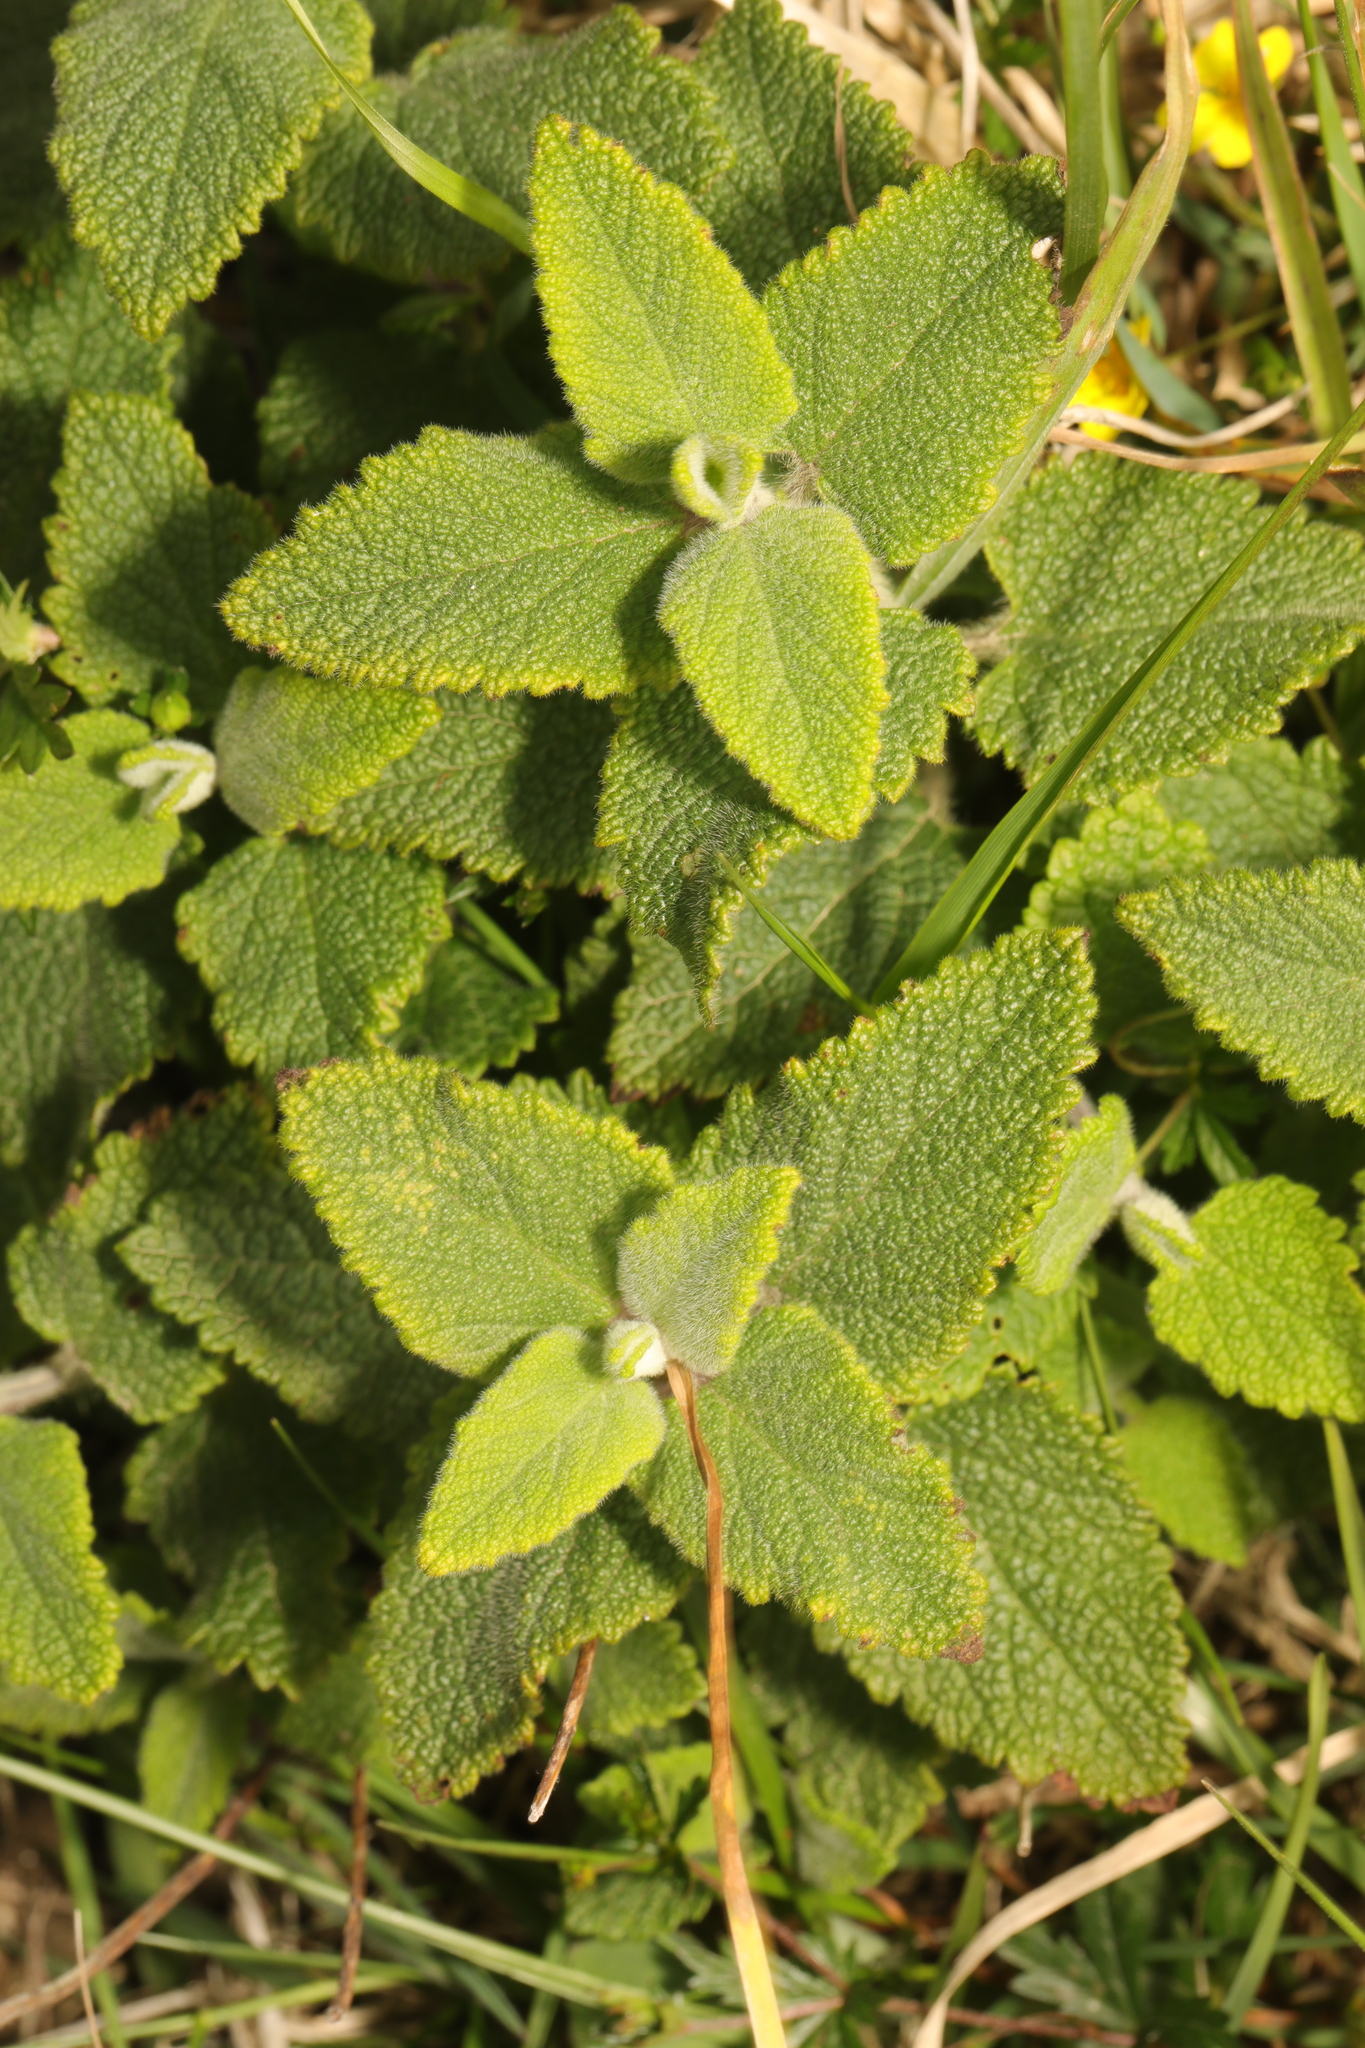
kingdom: Plantae
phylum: Tracheophyta
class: Magnoliopsida
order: Lamiales
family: Lamiaceae
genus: Teucrium
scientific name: Teucrium scorodonia
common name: Woodland germander
